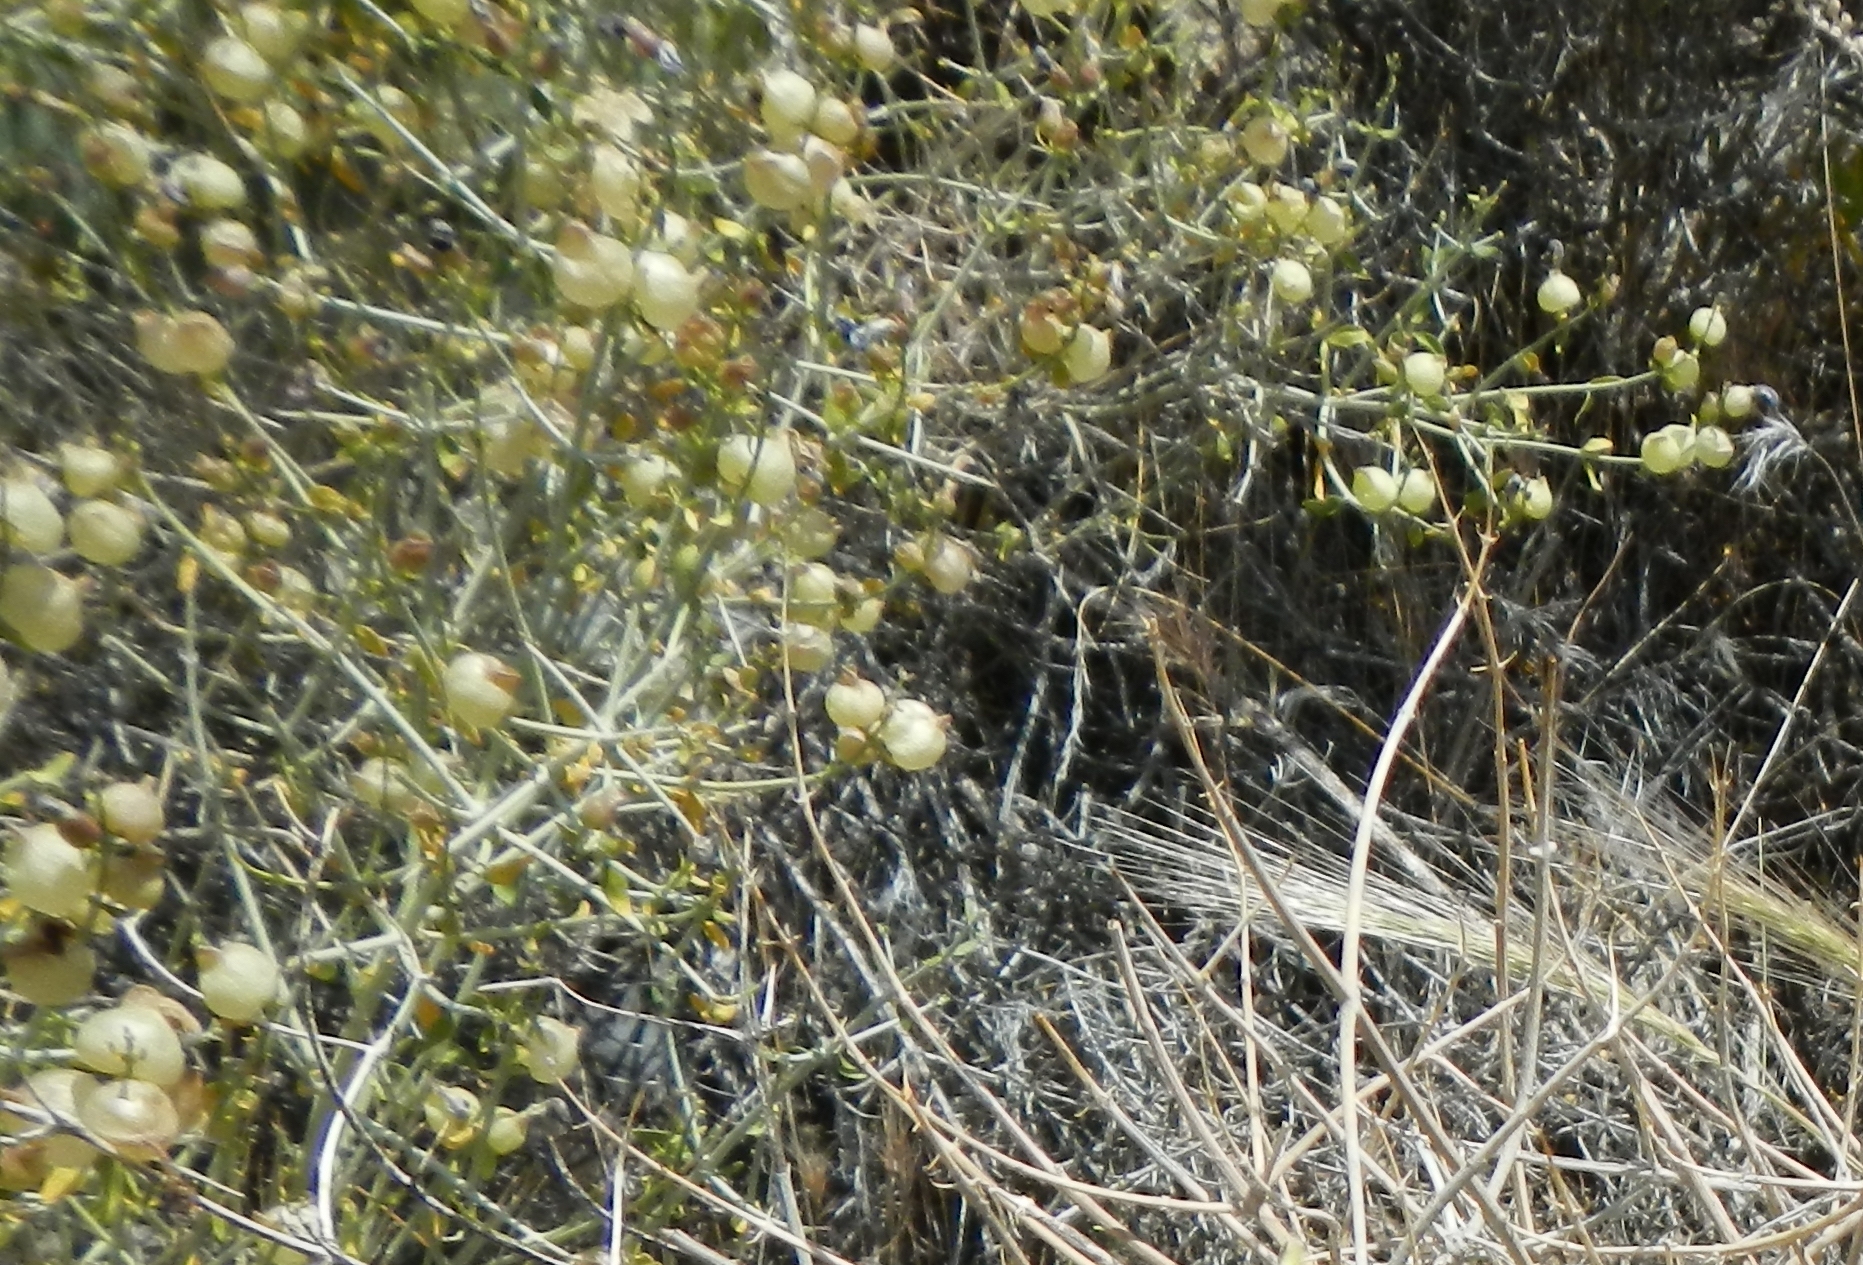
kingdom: Plantae
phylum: Tracheophyta
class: Magnoliopsida
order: Lamiales
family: Lamiaceae
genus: Scutellaria
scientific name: Scutellaria mexicana
